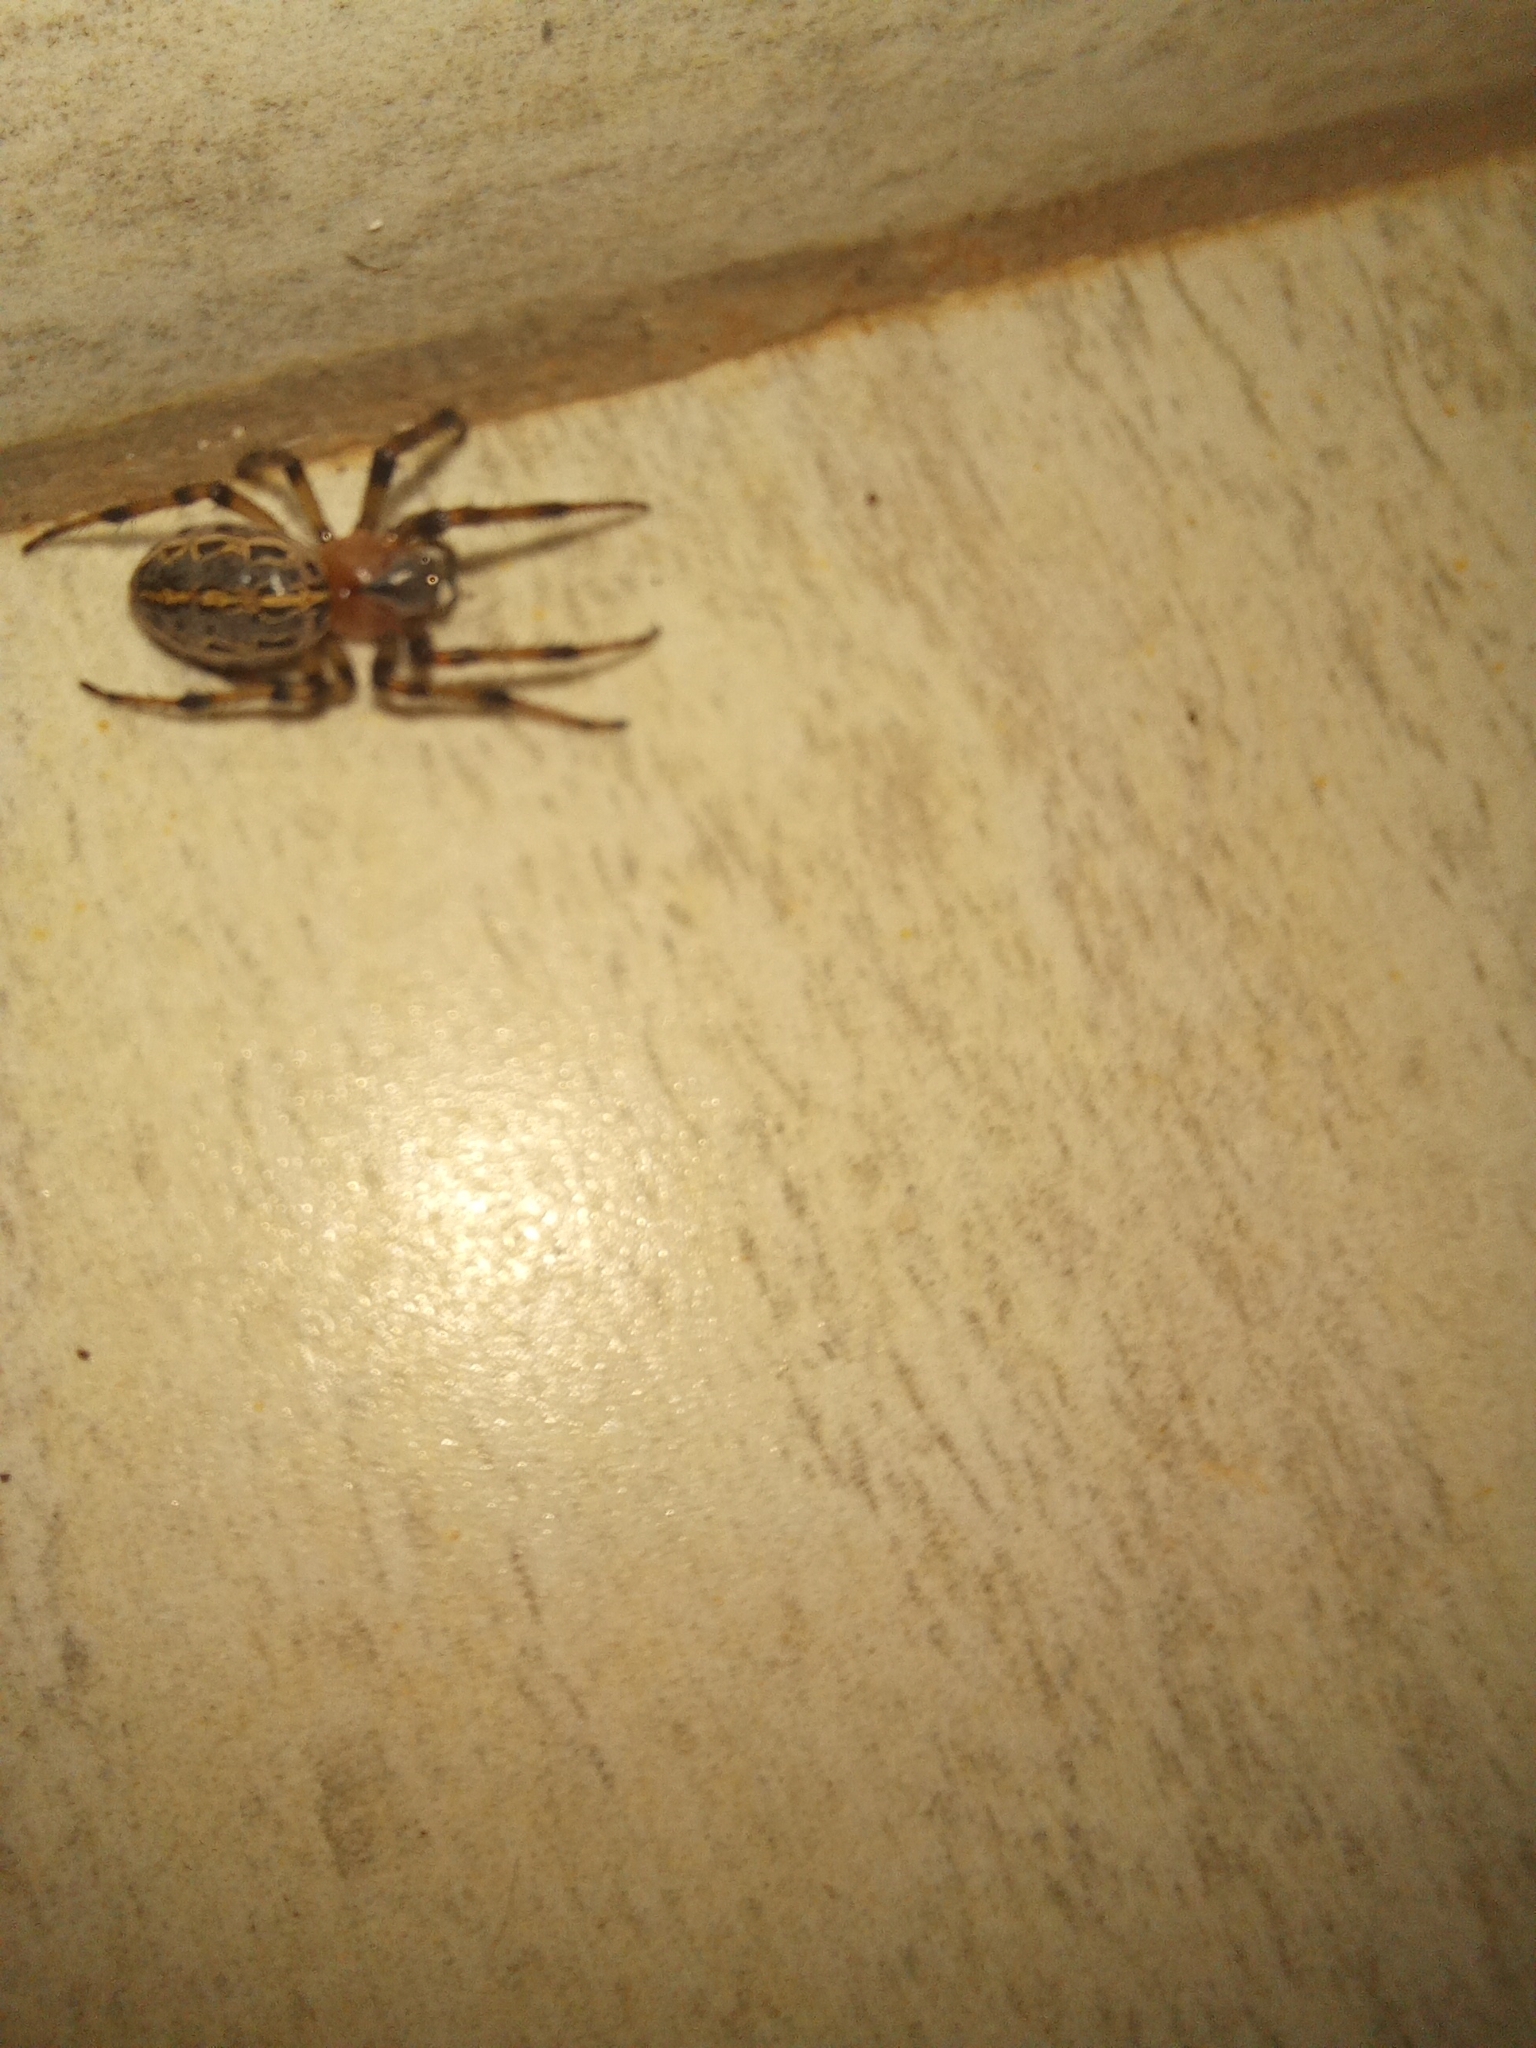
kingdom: Animalia
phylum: Arthropoda
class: Arachnida
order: Araneae
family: Araneidae
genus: Alpaida
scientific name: Alpaida veniliae
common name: Orb weavers
